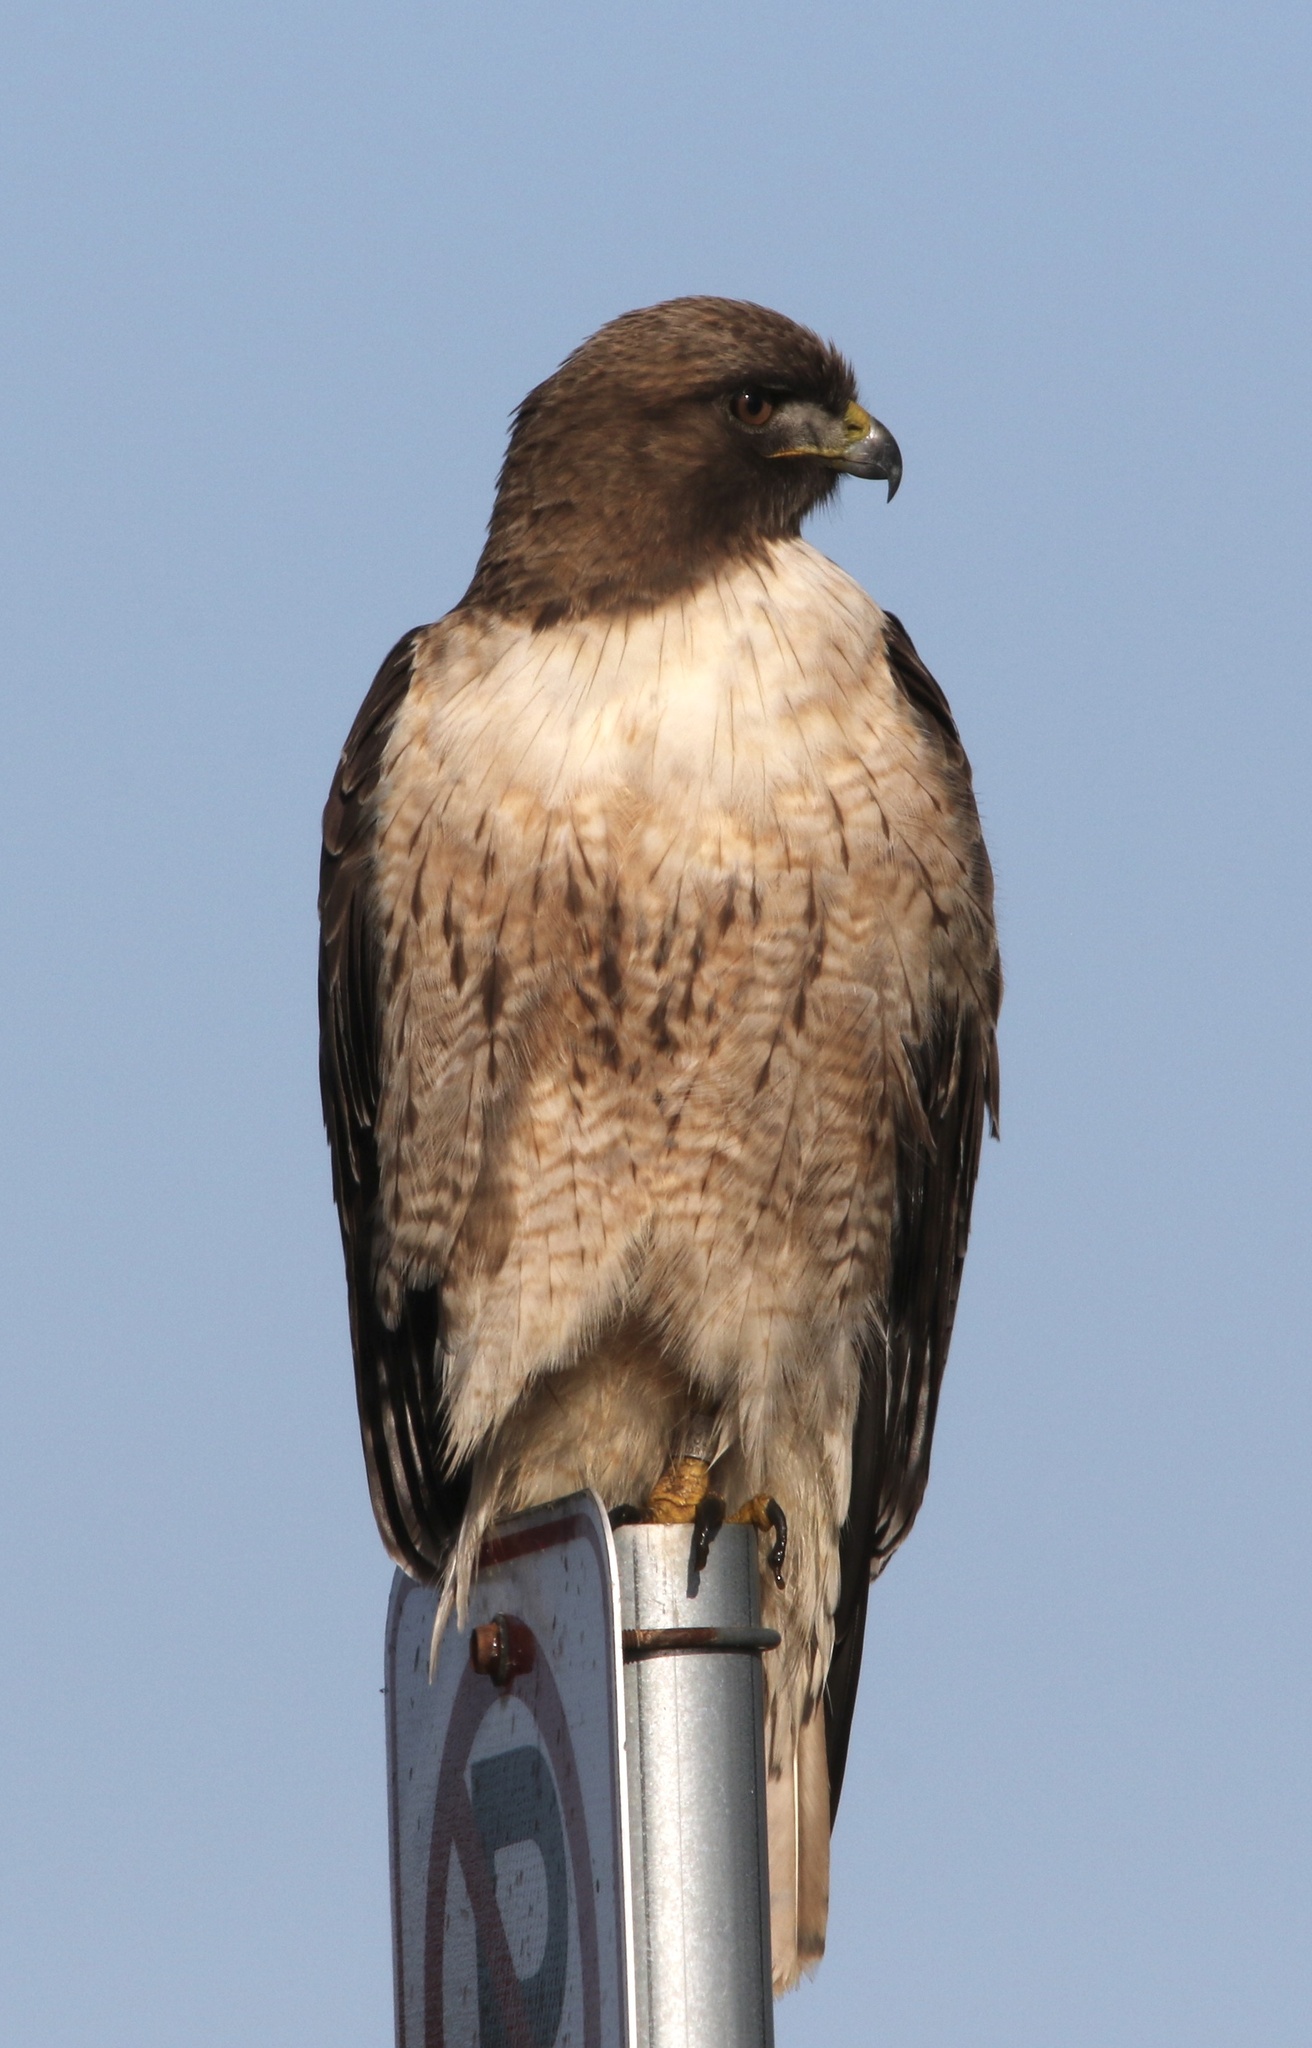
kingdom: Animalia
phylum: Chordata
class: Aves
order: Accipitriformes
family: Accipitridae
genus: Buteo
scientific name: Buteo jamaicensis
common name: Red-tailed hawk
